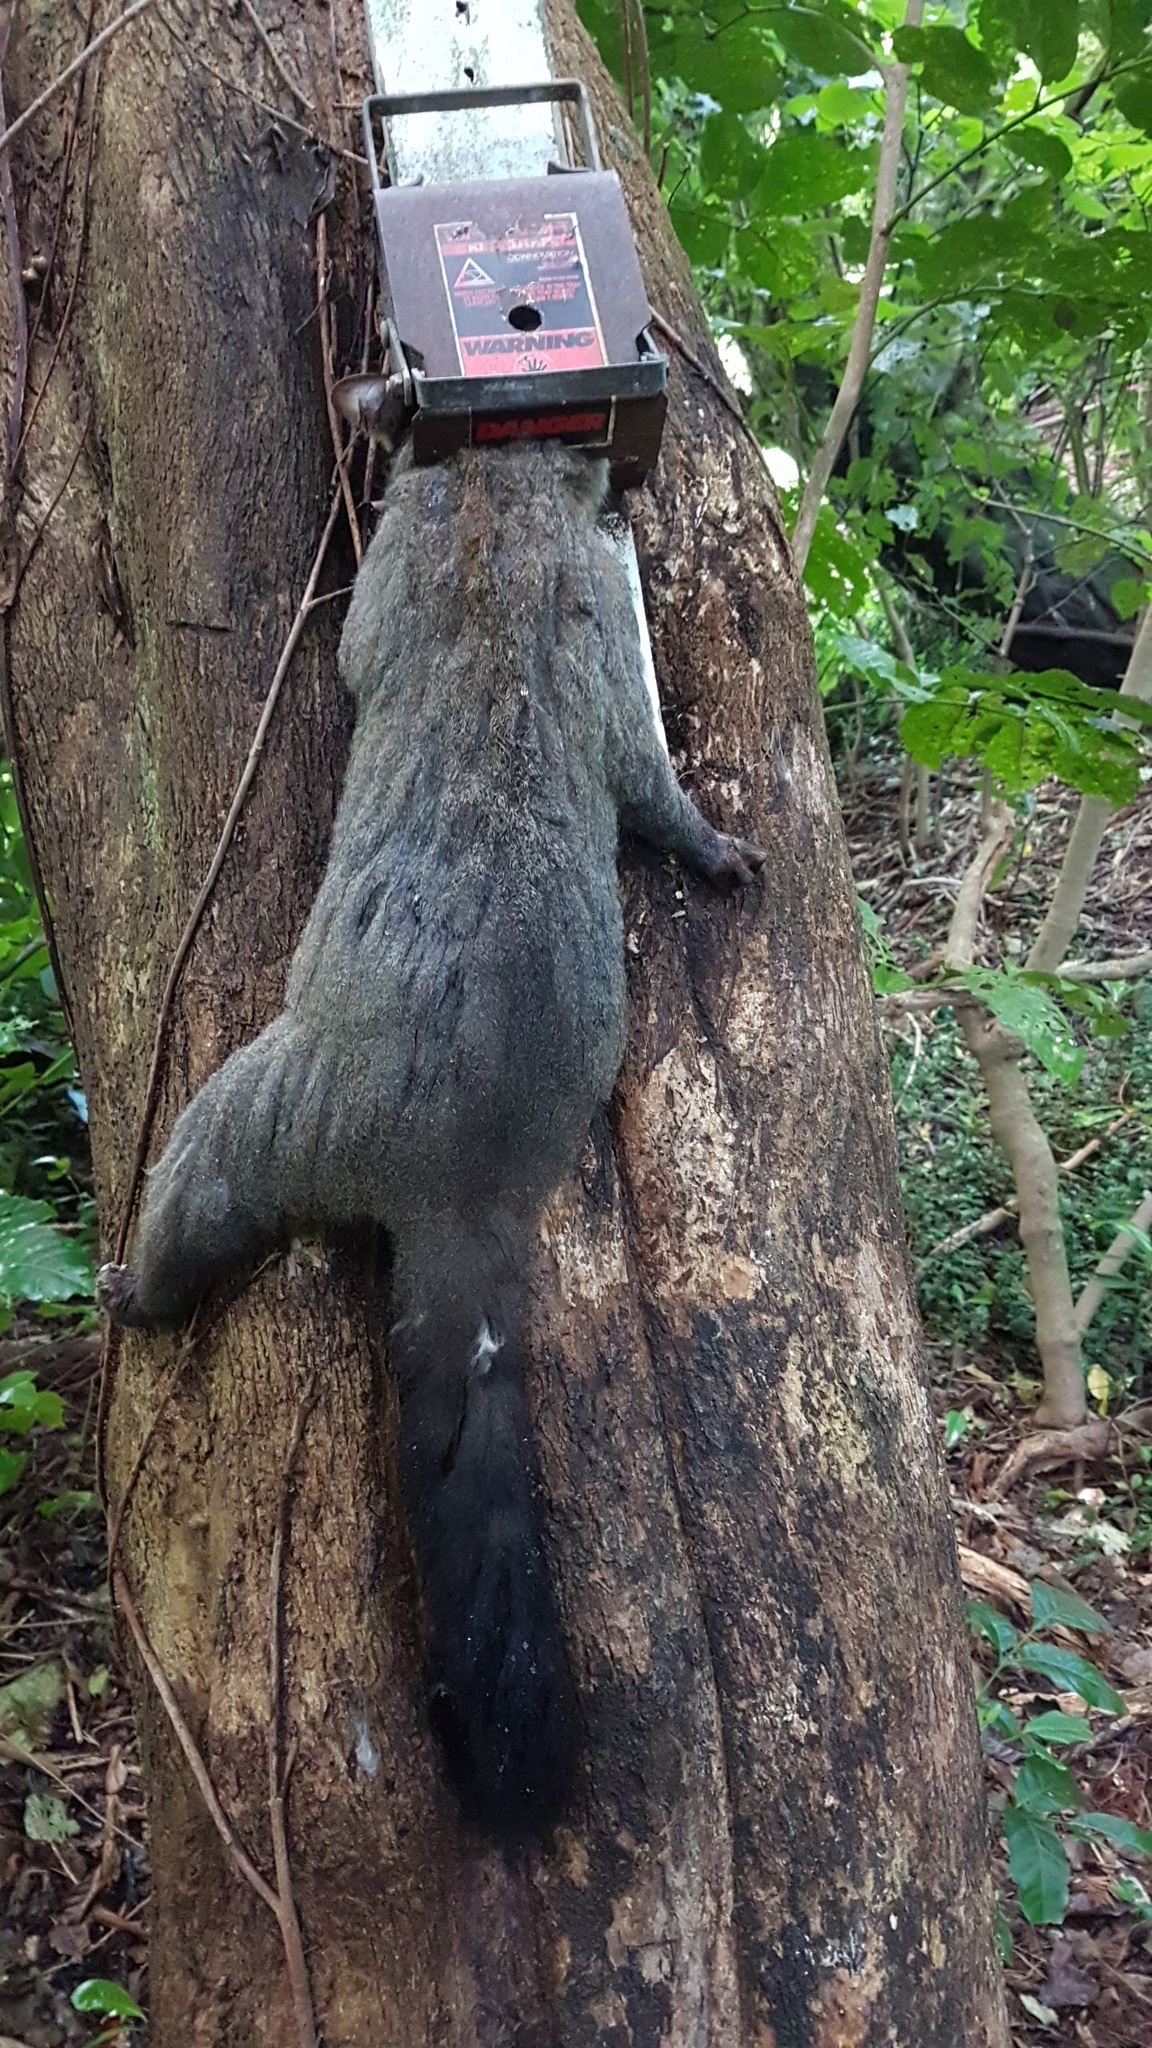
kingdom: Animalia
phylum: Chordata
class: Mammalia
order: Diprotodontia
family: Phalangeridae
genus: Trichosurus
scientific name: Trichosurus vulpecula
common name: Common brushtail
